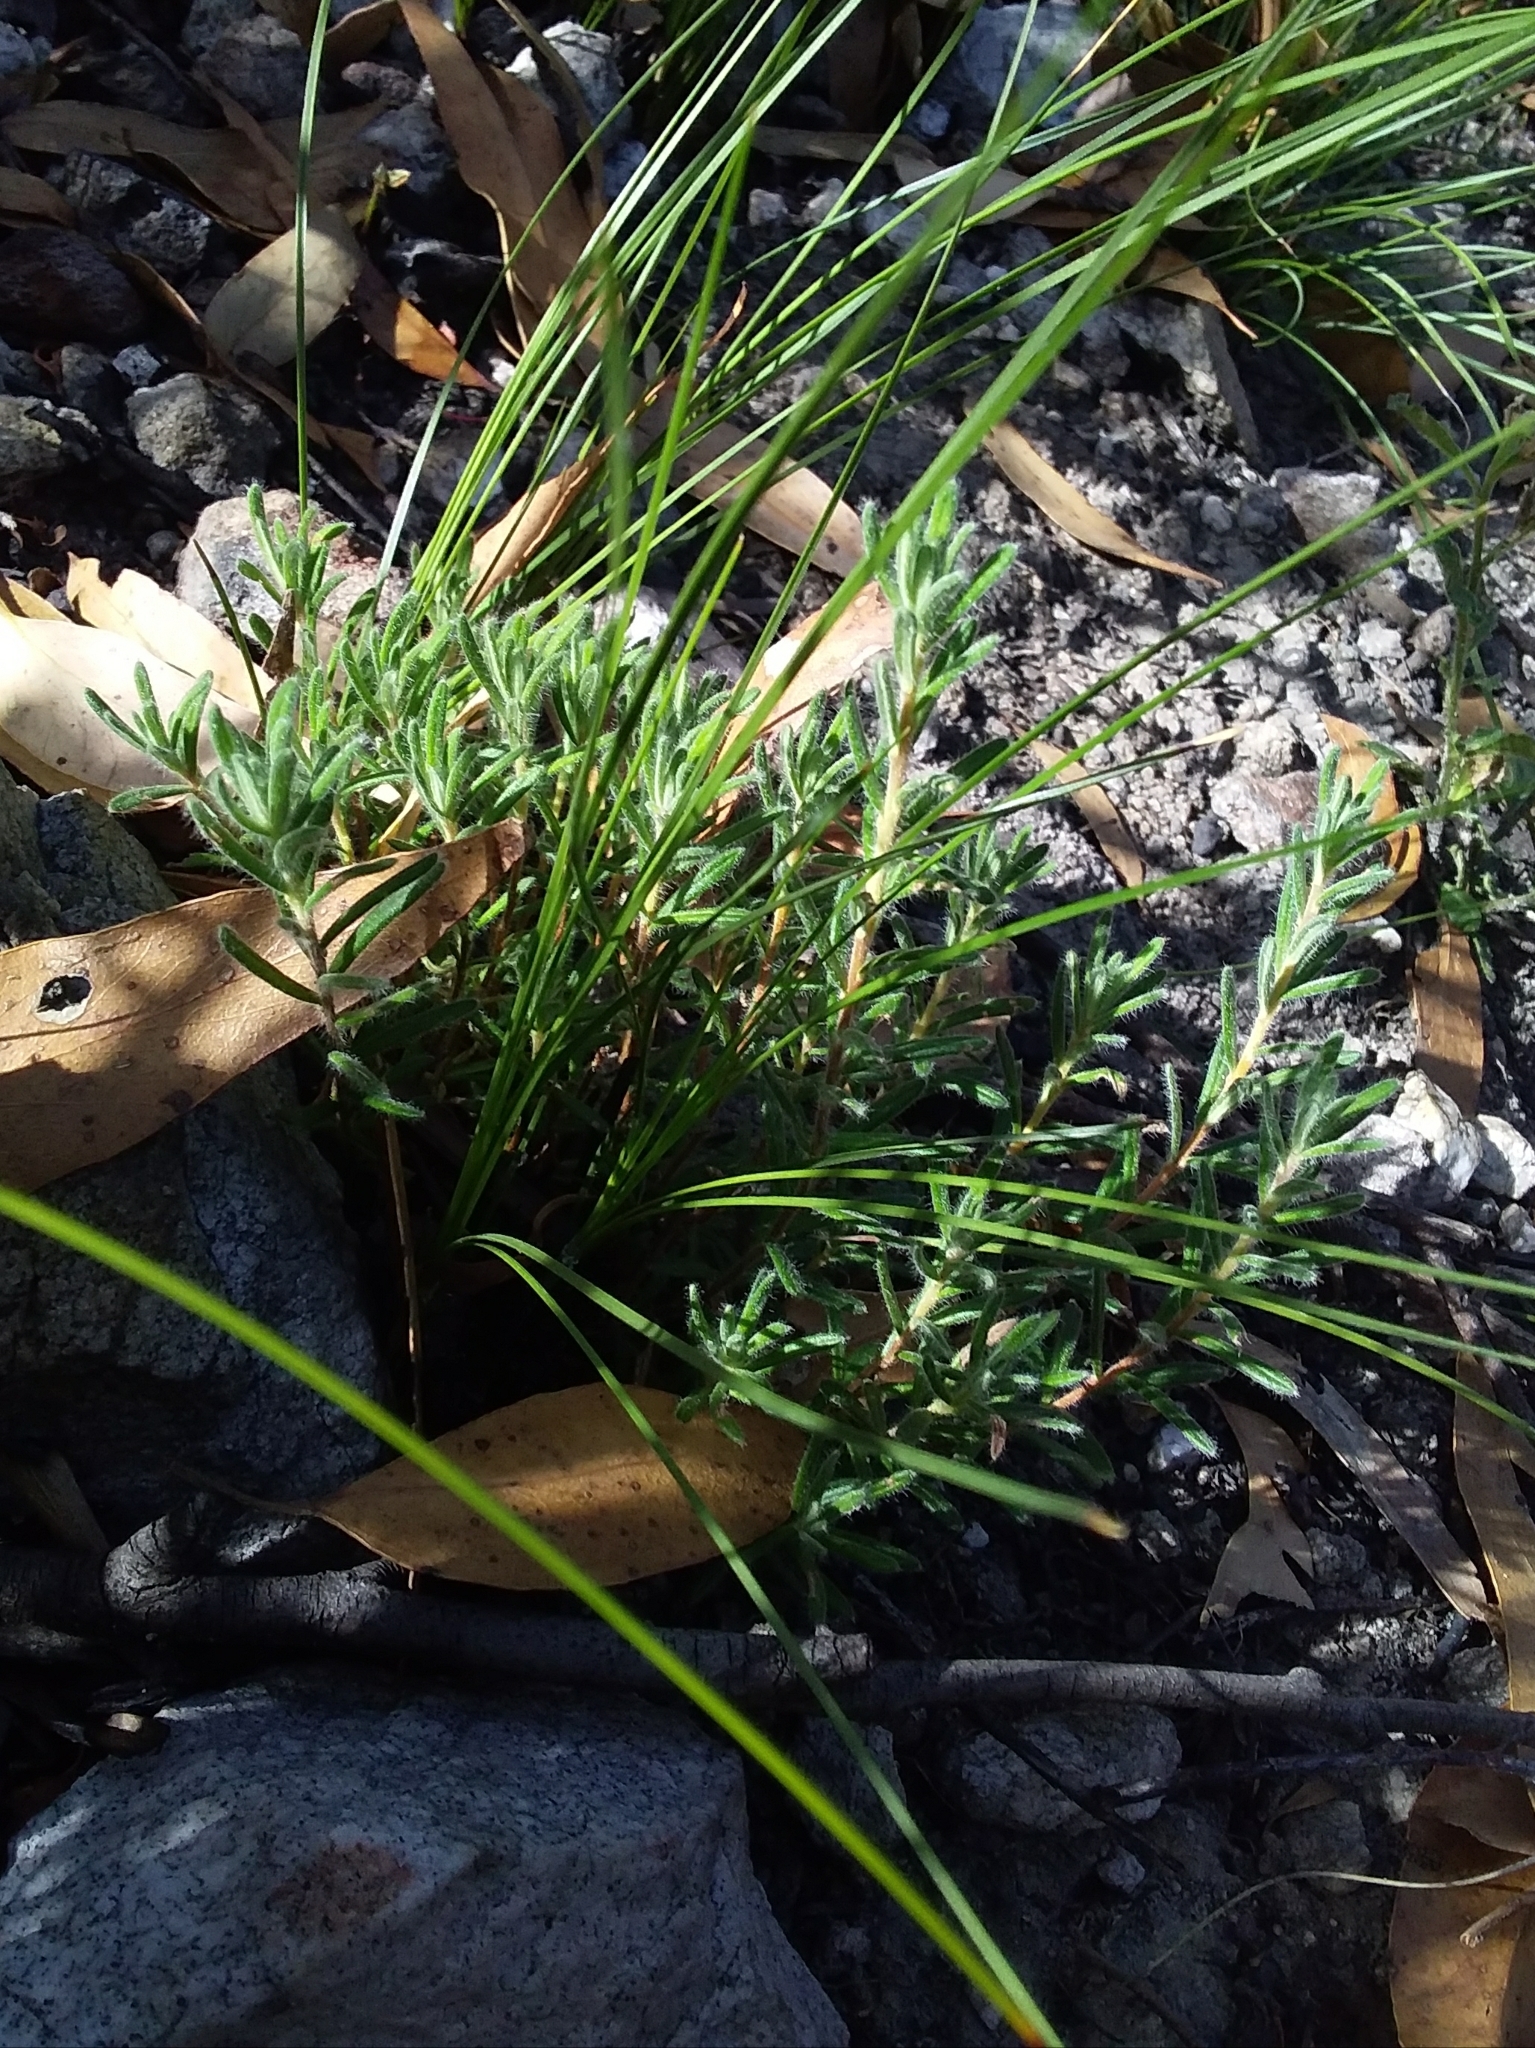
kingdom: Plantae
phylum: Tracheophyta
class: Magnoliopsida
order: Dilleniales
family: Dilleniaceae
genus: Hibbertia
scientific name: Hibbertia crinita
